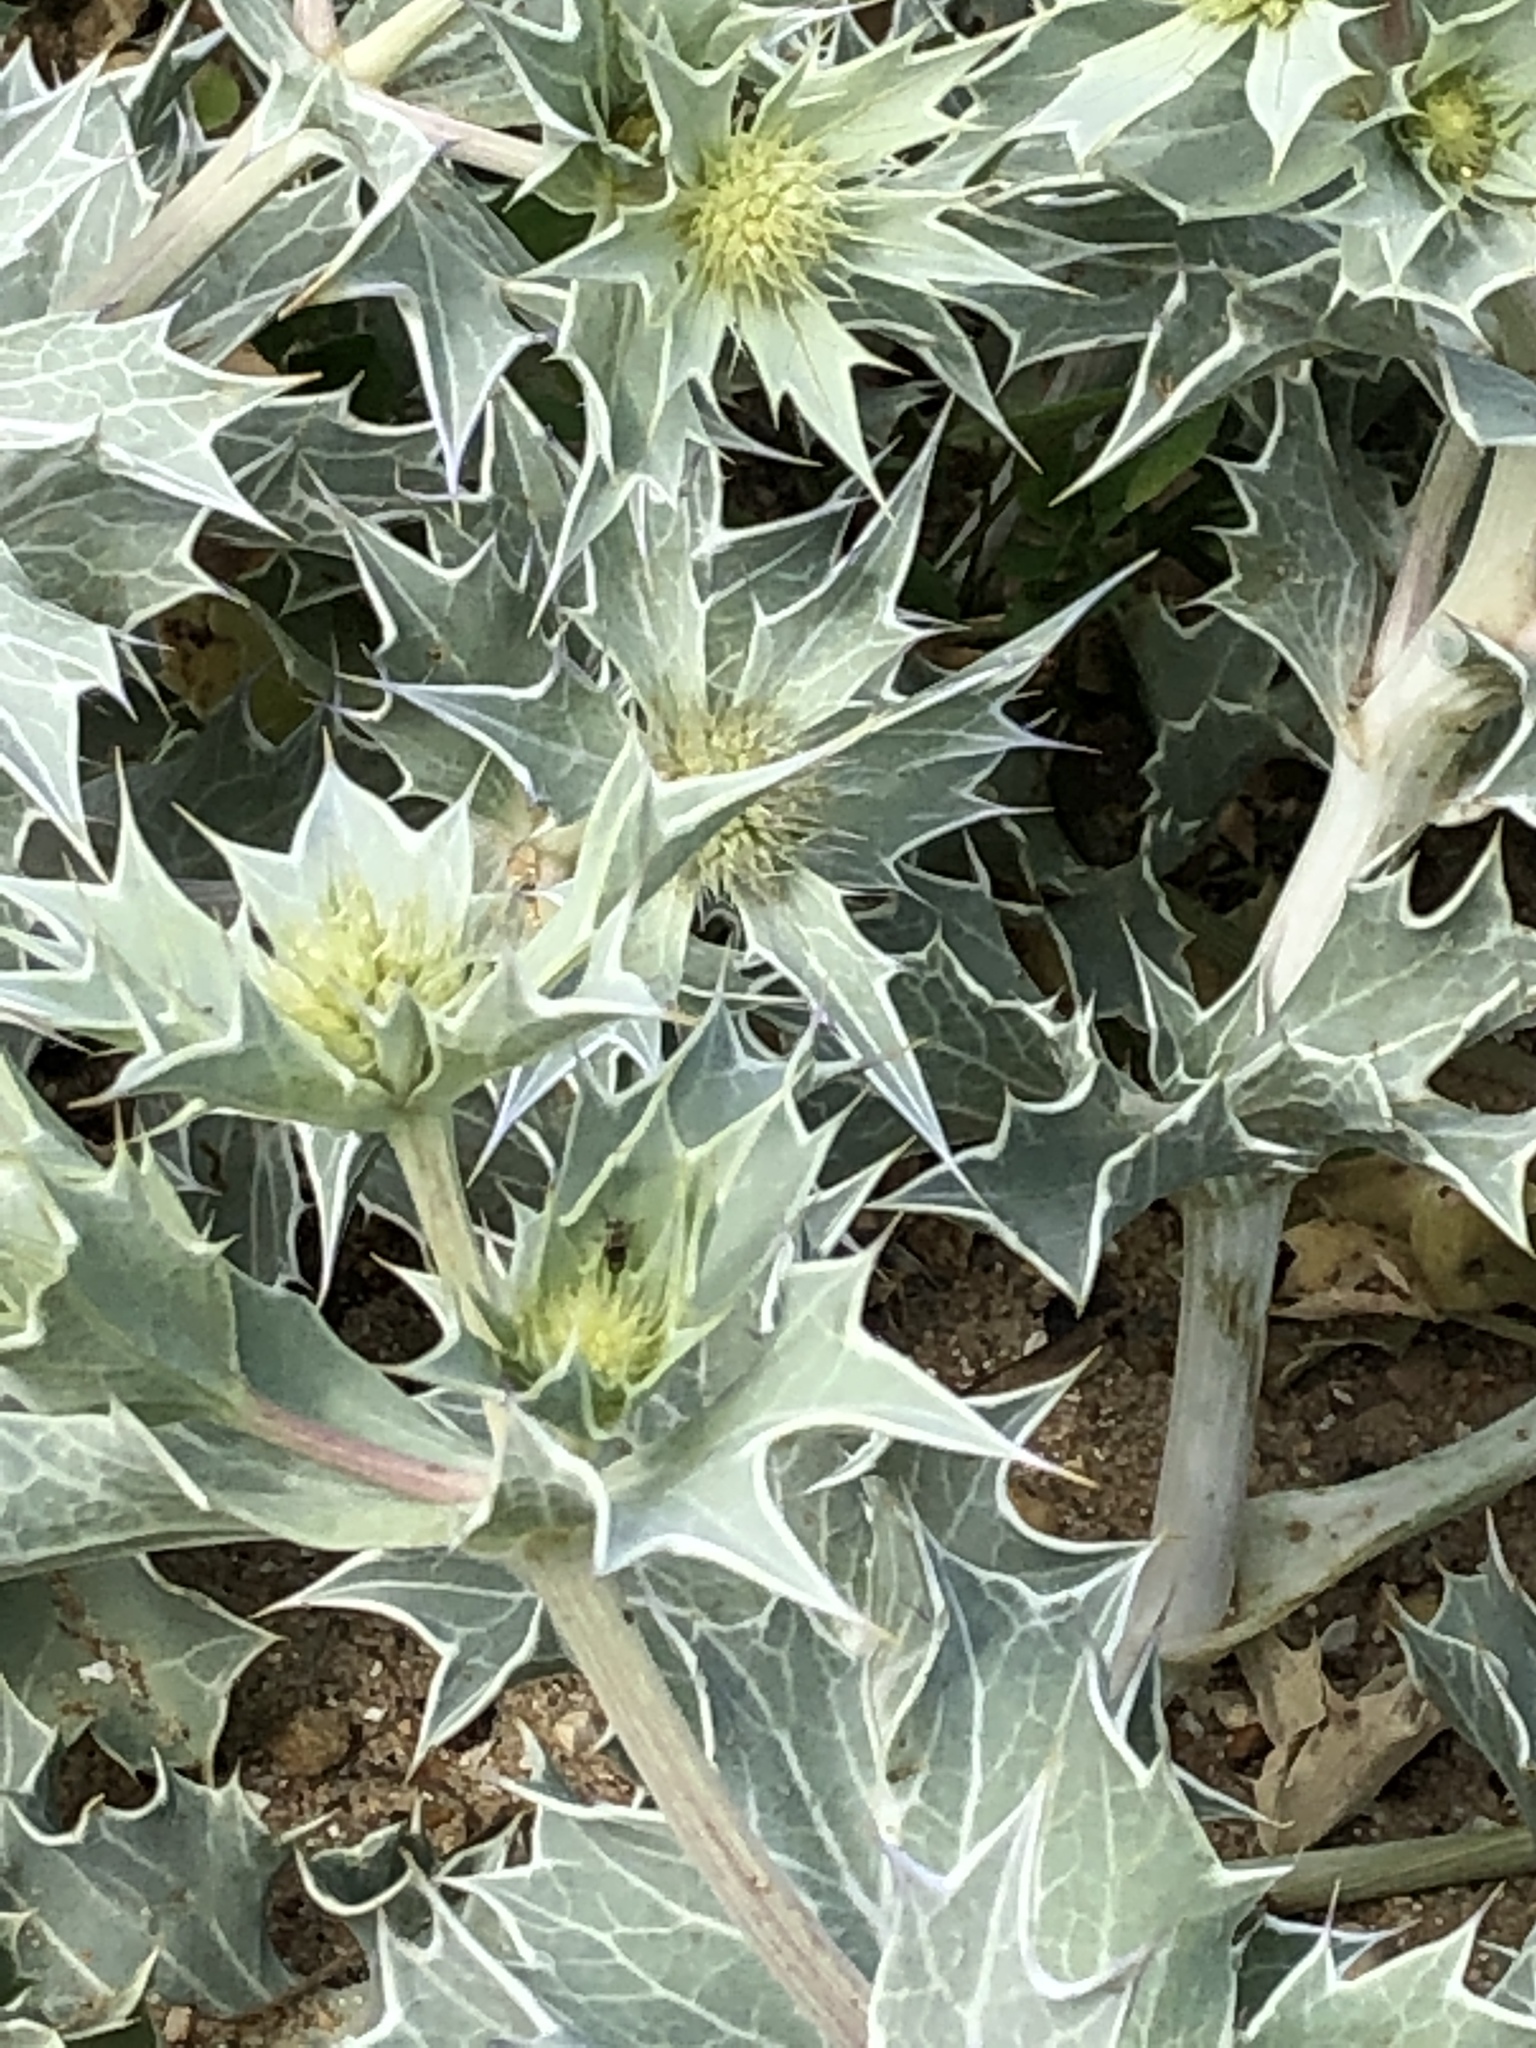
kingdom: Plantae
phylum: Tracheophyta
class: Magnoliopsida
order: Apiales
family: Apiaceae
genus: Eryngium
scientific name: Eryngium maritimum
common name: Sea-holly
